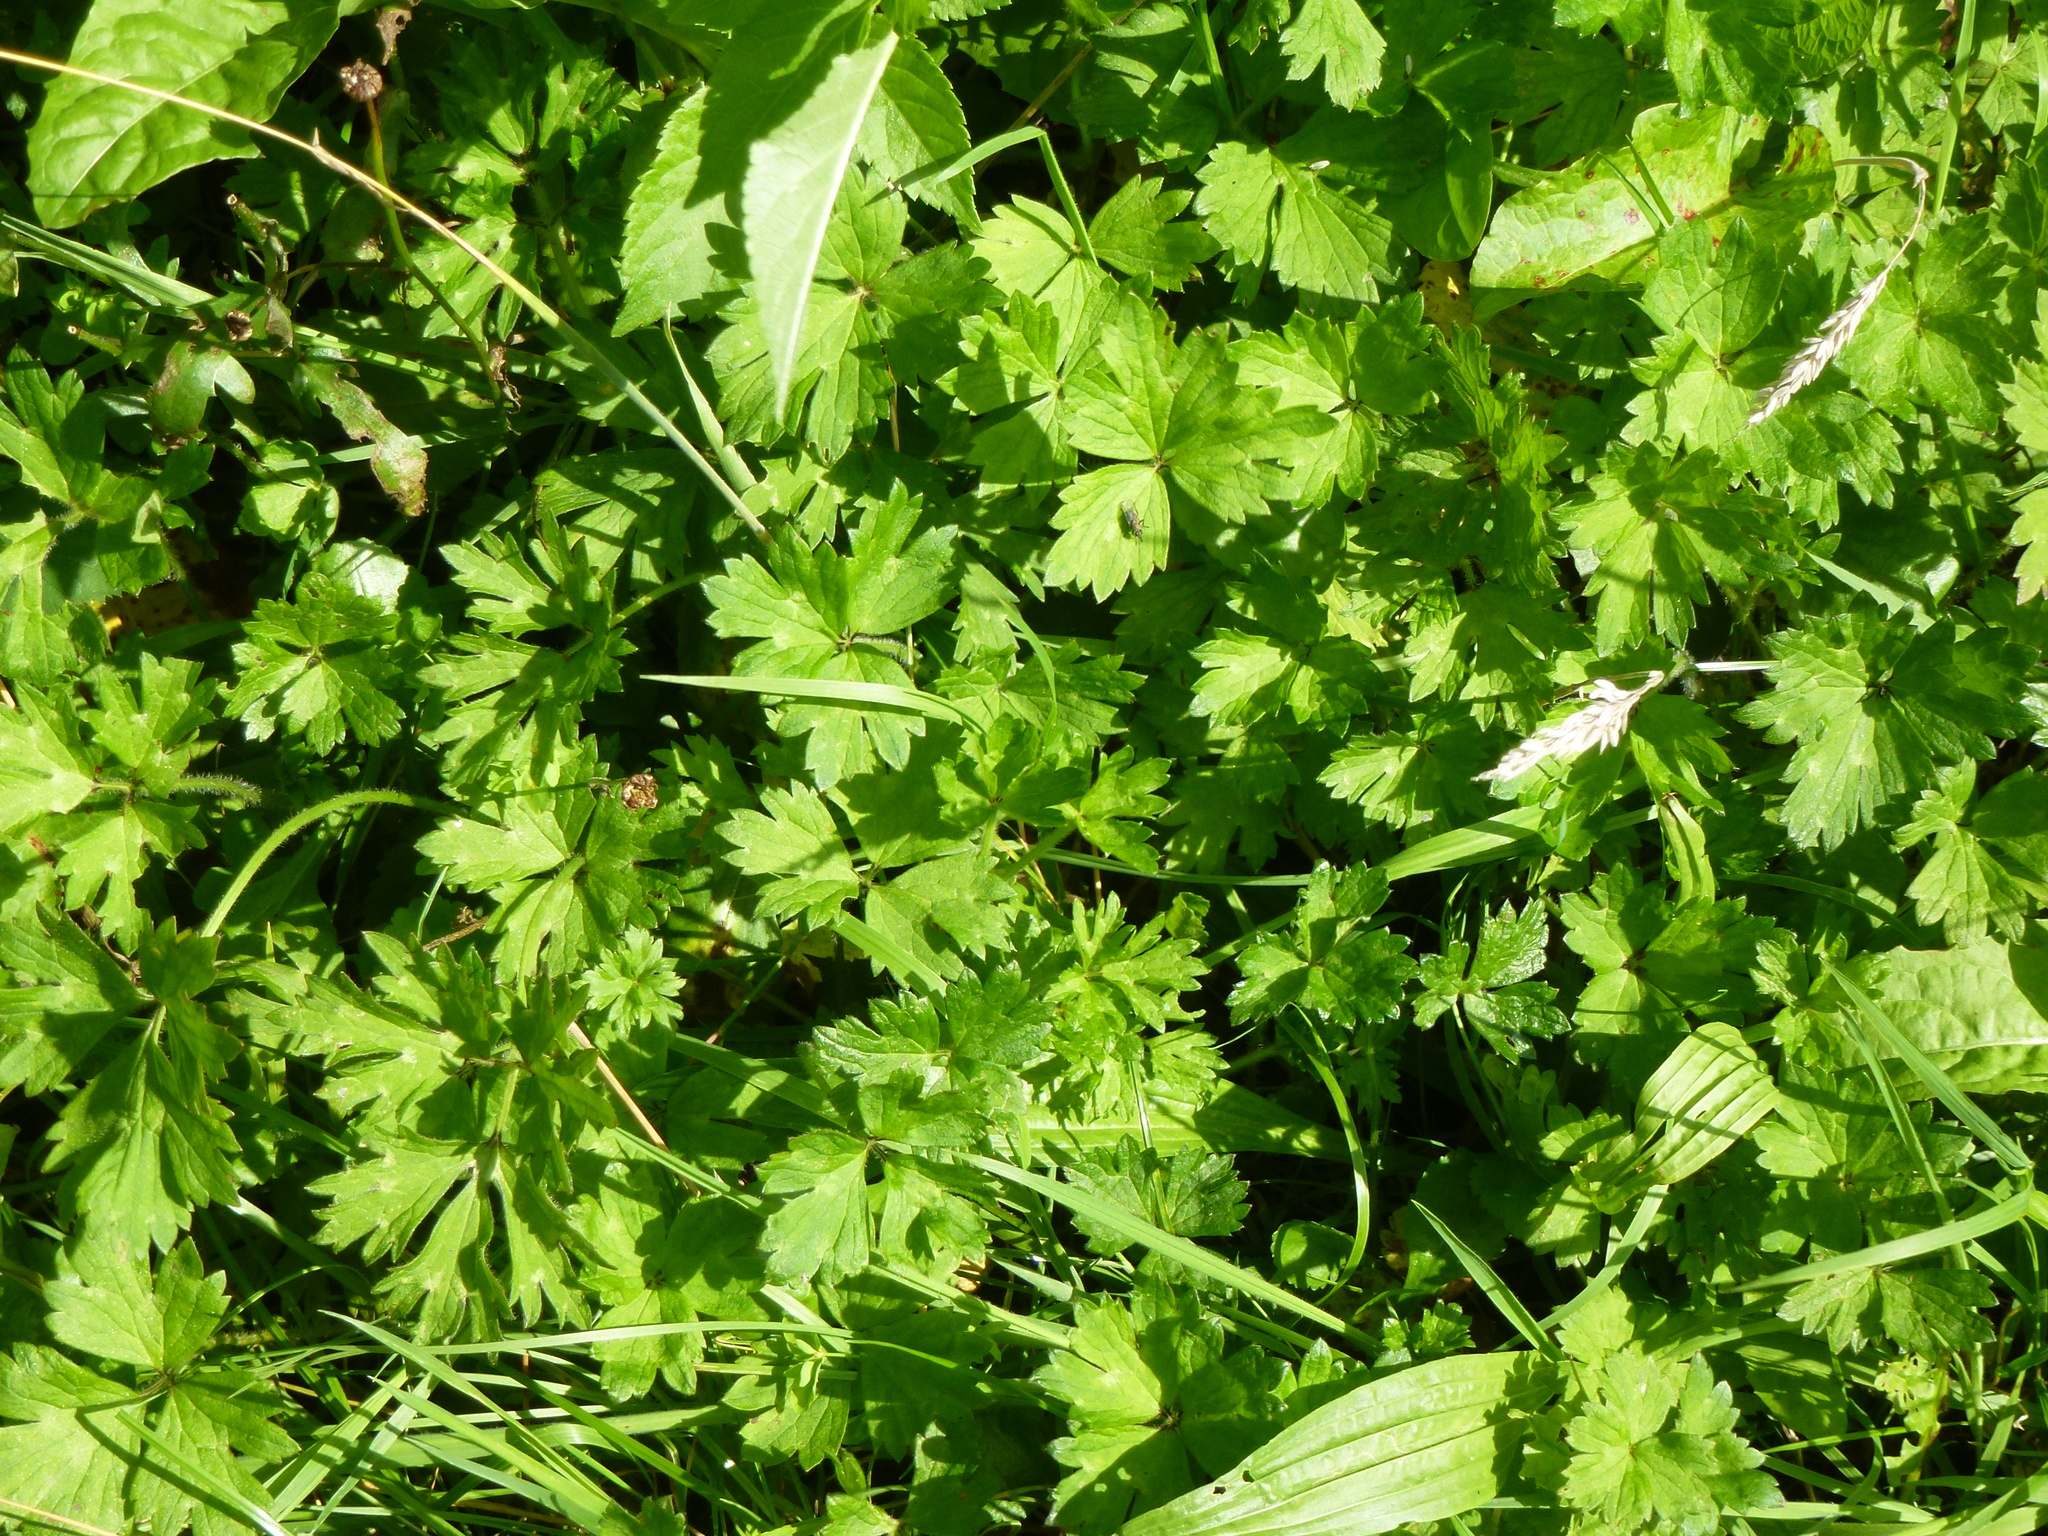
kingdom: Plantae
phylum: Tracheophyta
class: Magnoliopsida
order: Ranunculales
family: Ranunculaceae
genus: Ranunculus
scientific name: Ranunculus repens
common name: Creeping buttercup
